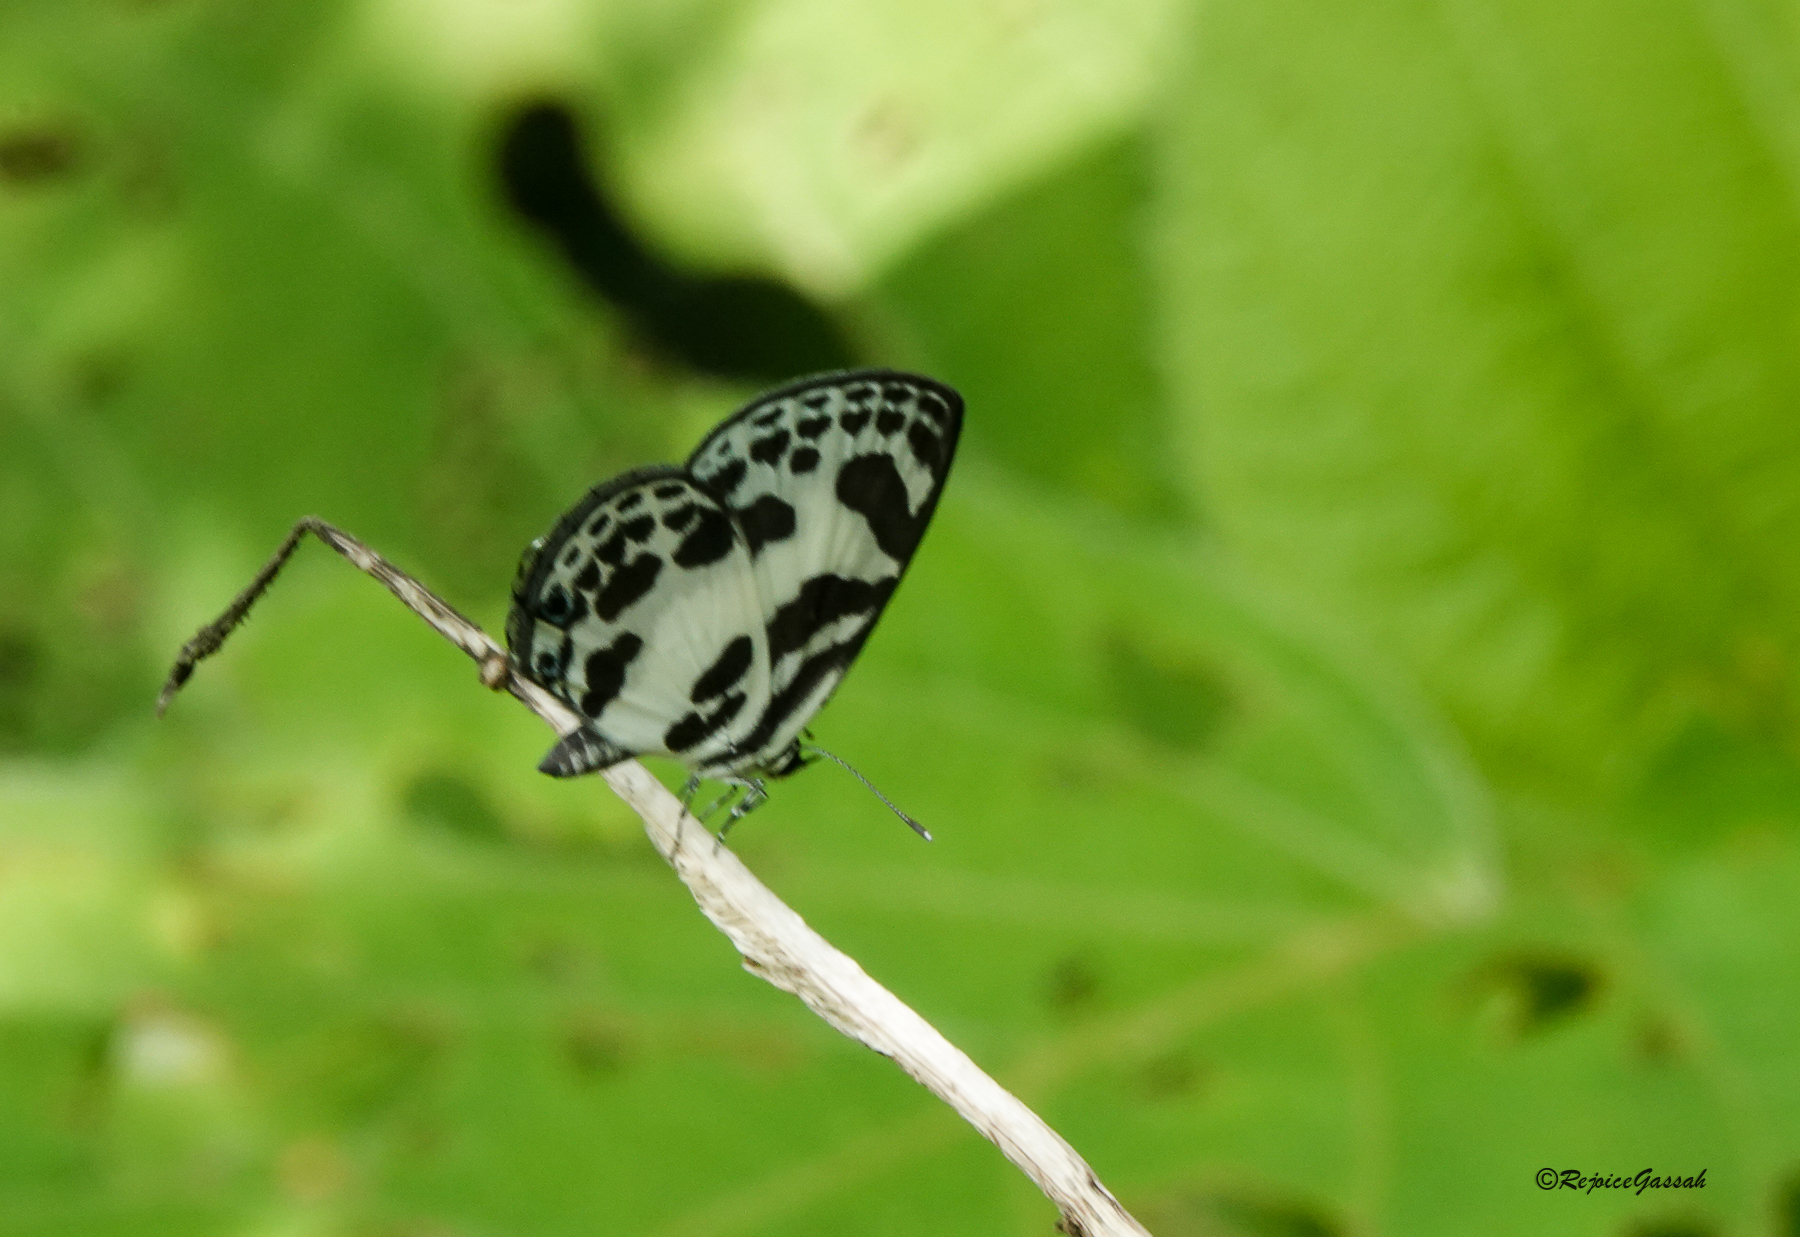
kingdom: Animalia
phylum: Arthropoda
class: Insecta
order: Lepidoptera
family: Lycaenidae
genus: Discolampa
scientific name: Discolampa ethion
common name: Banded blue pierrot
